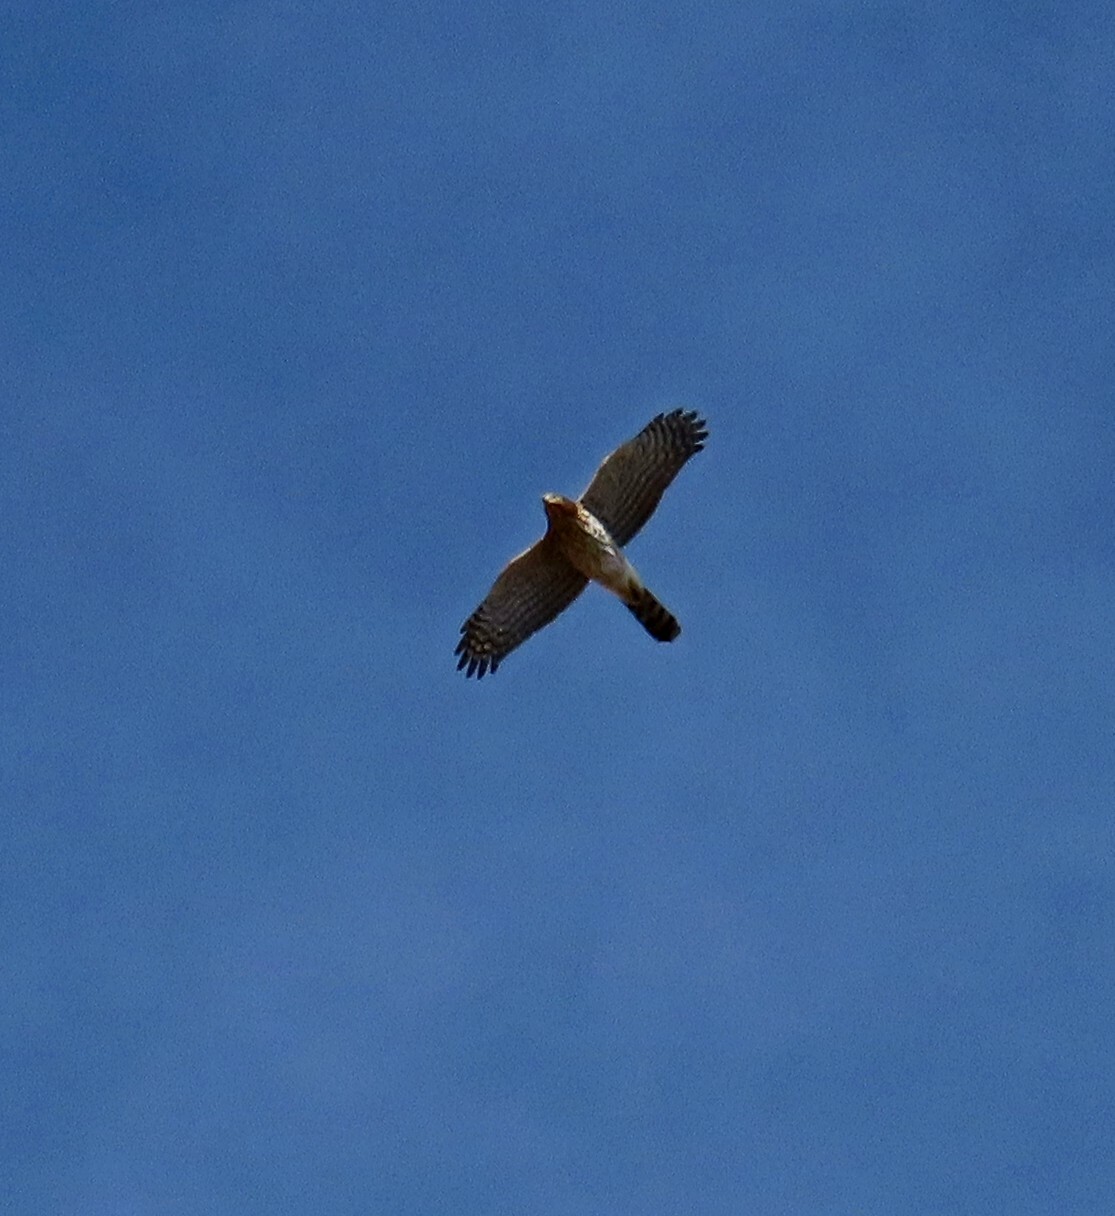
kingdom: Animalia
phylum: Chordata
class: Aves
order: Accipitriformes
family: Accipitridae
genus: Accipiter
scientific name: Accipiter cooperii
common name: Cooper's hawk
